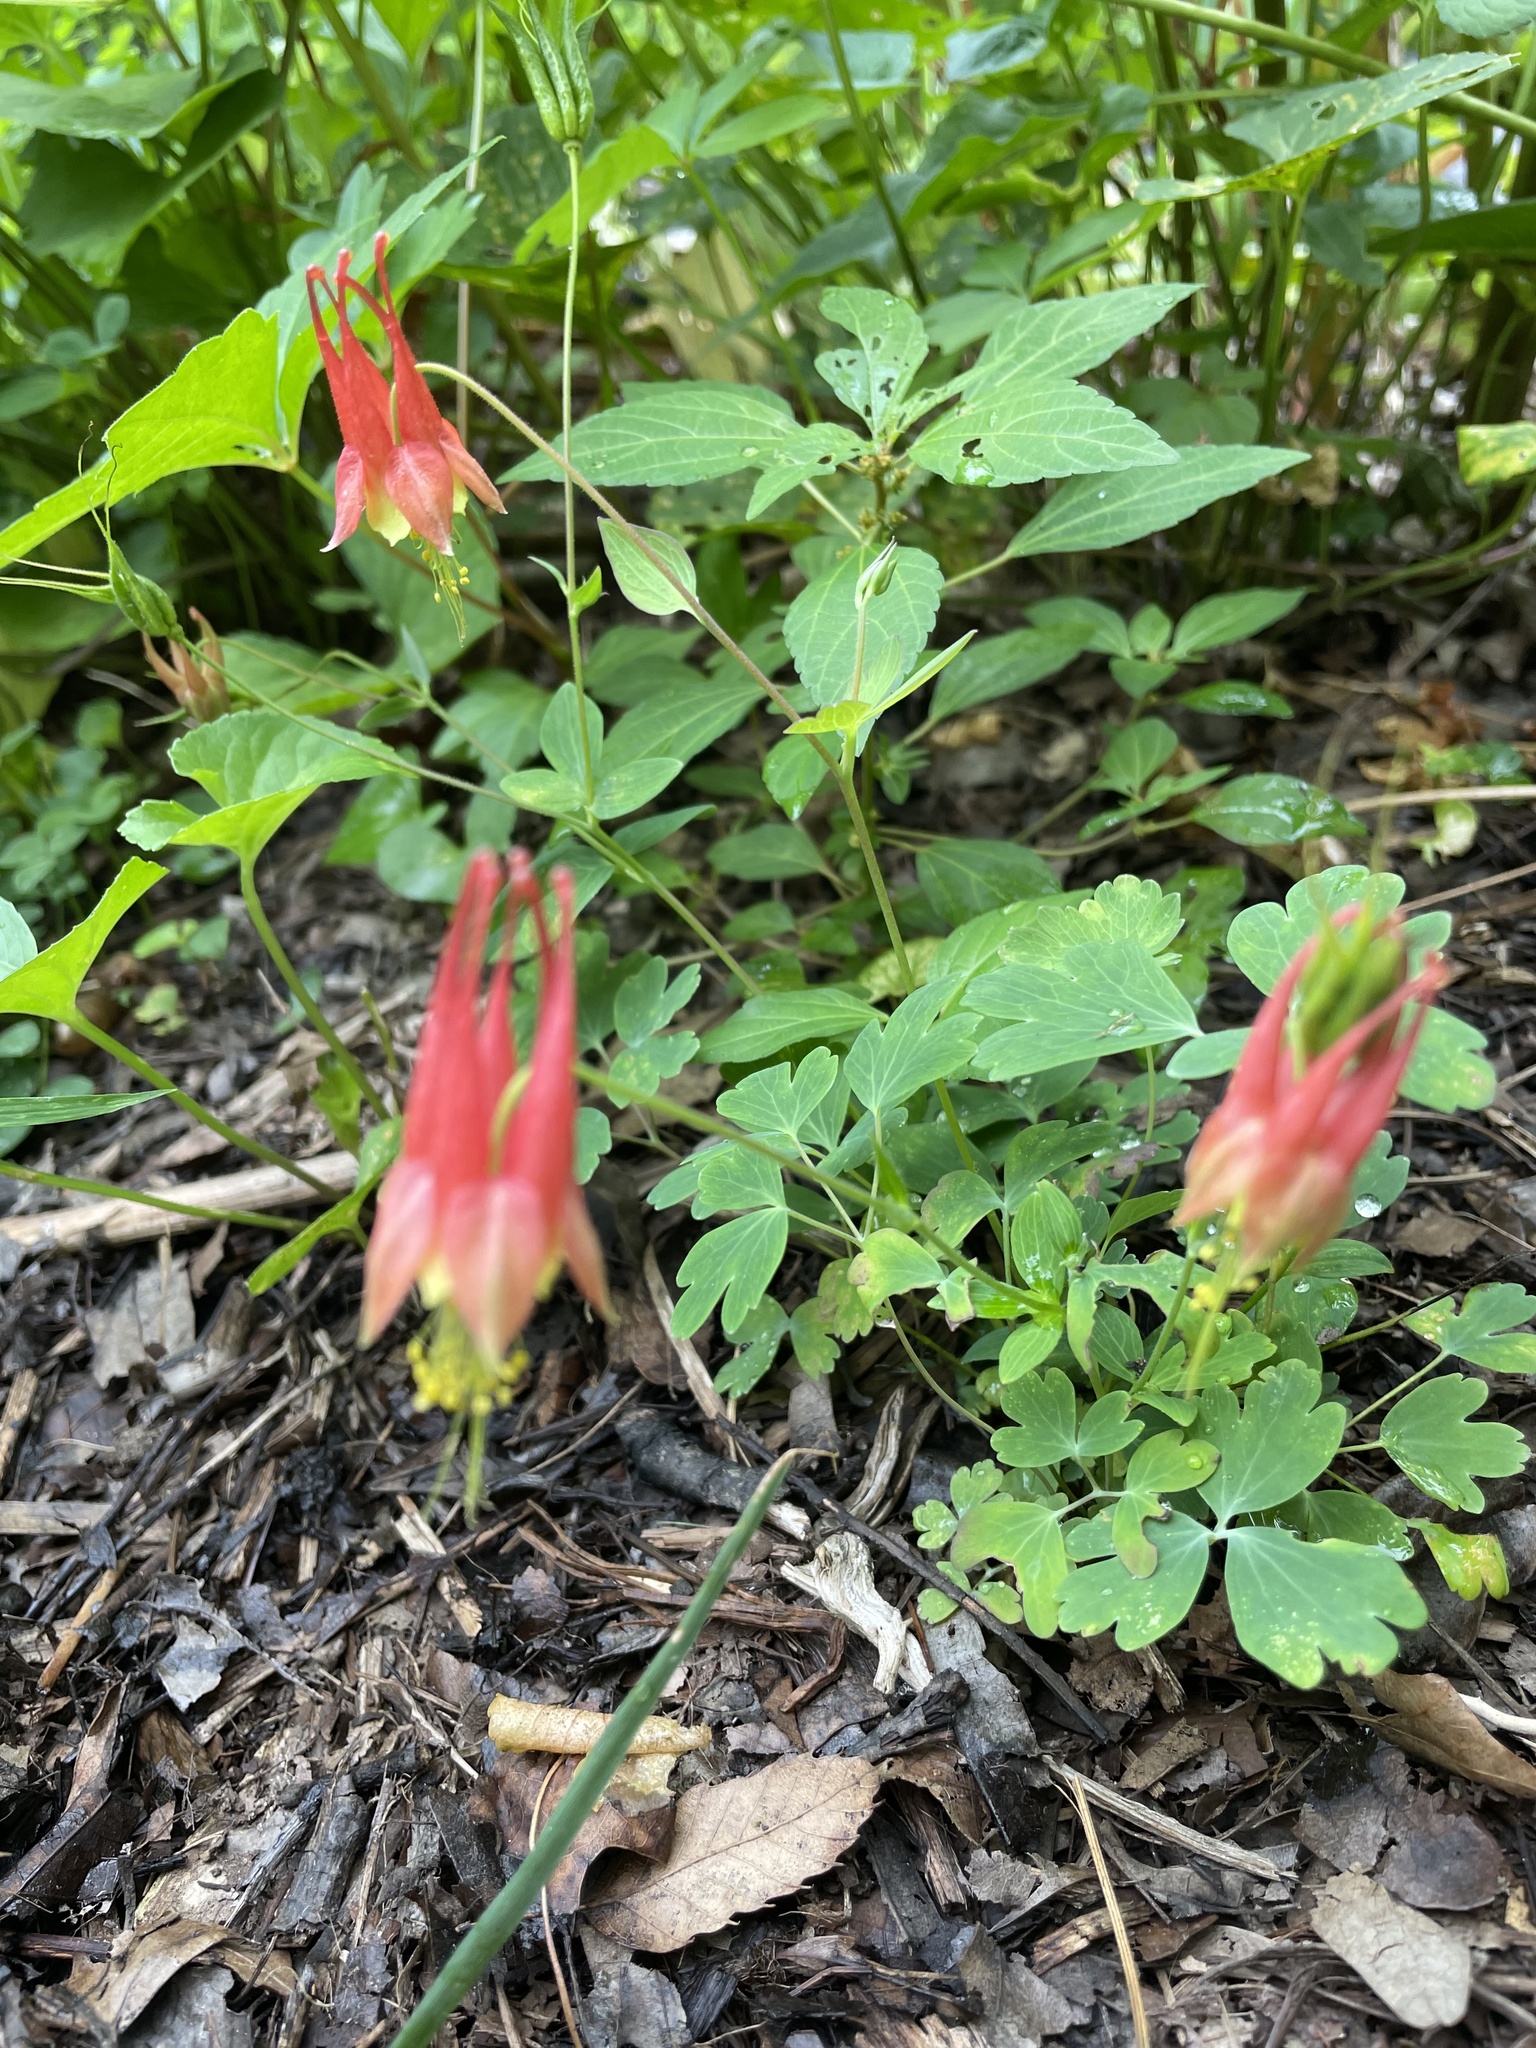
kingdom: Plantae
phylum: Tracheophyta
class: Magnoliopsida
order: Ranunculales
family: Ranunculaceae
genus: Aquilegia
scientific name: Aquilegia canadensis
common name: American columbine
